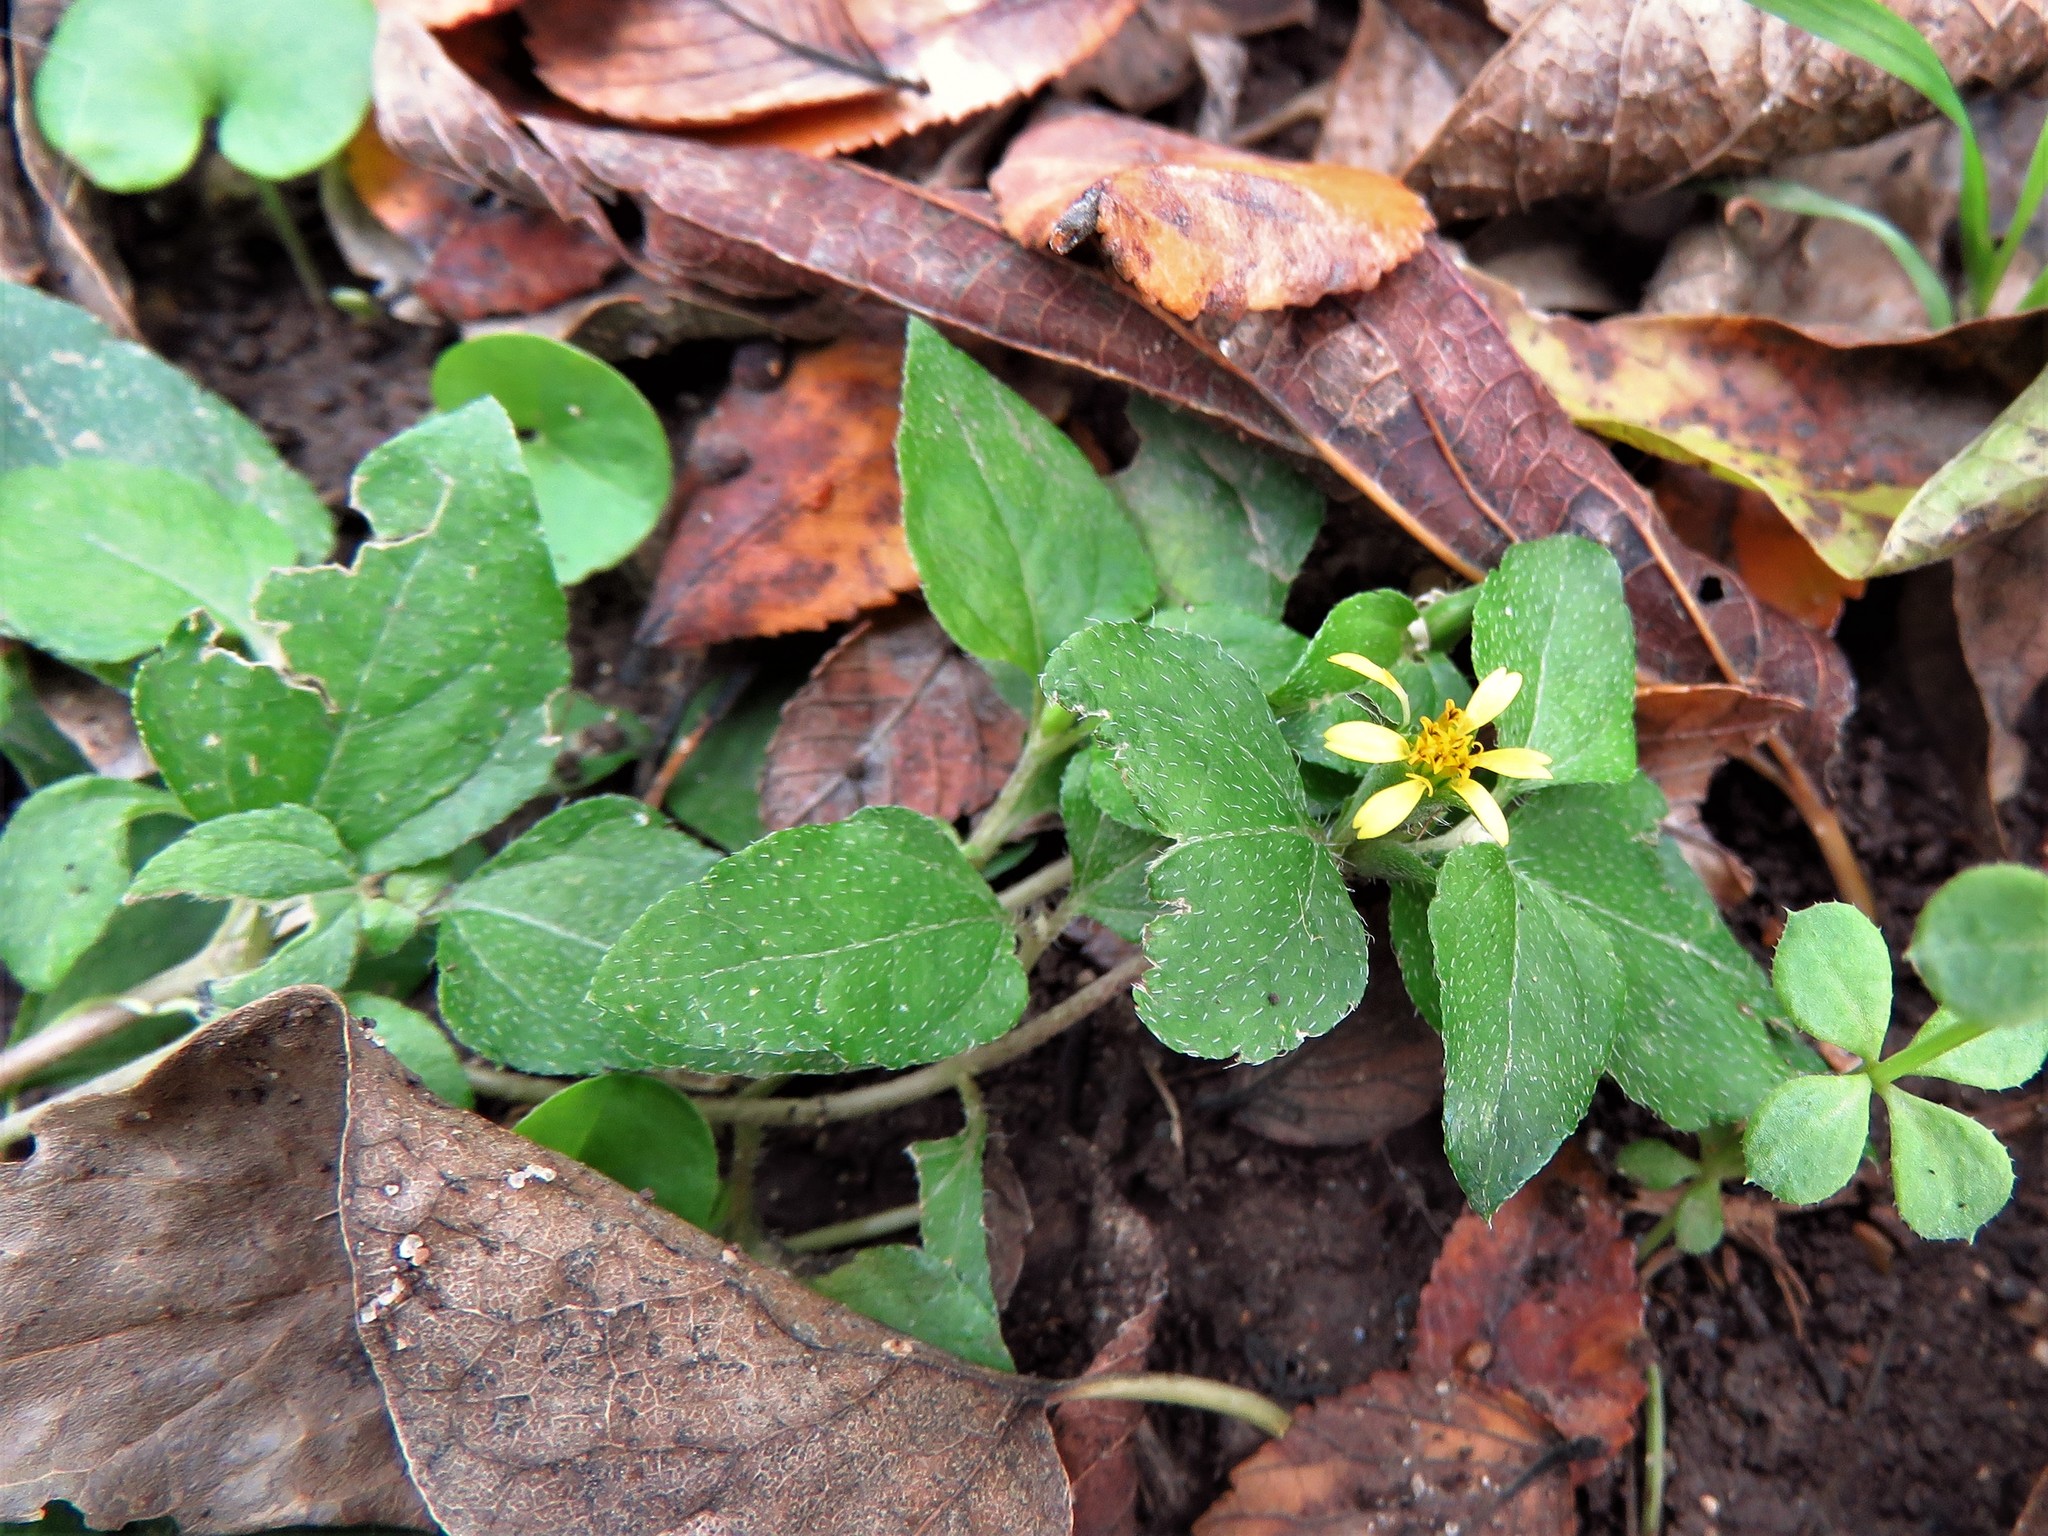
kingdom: Plantae
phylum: Tracheophyta
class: Magnoliopsida
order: Asterales
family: Asteraceae
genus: Calyptocarpus
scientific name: Calyptocarpus vialis
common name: Straggler daisy
